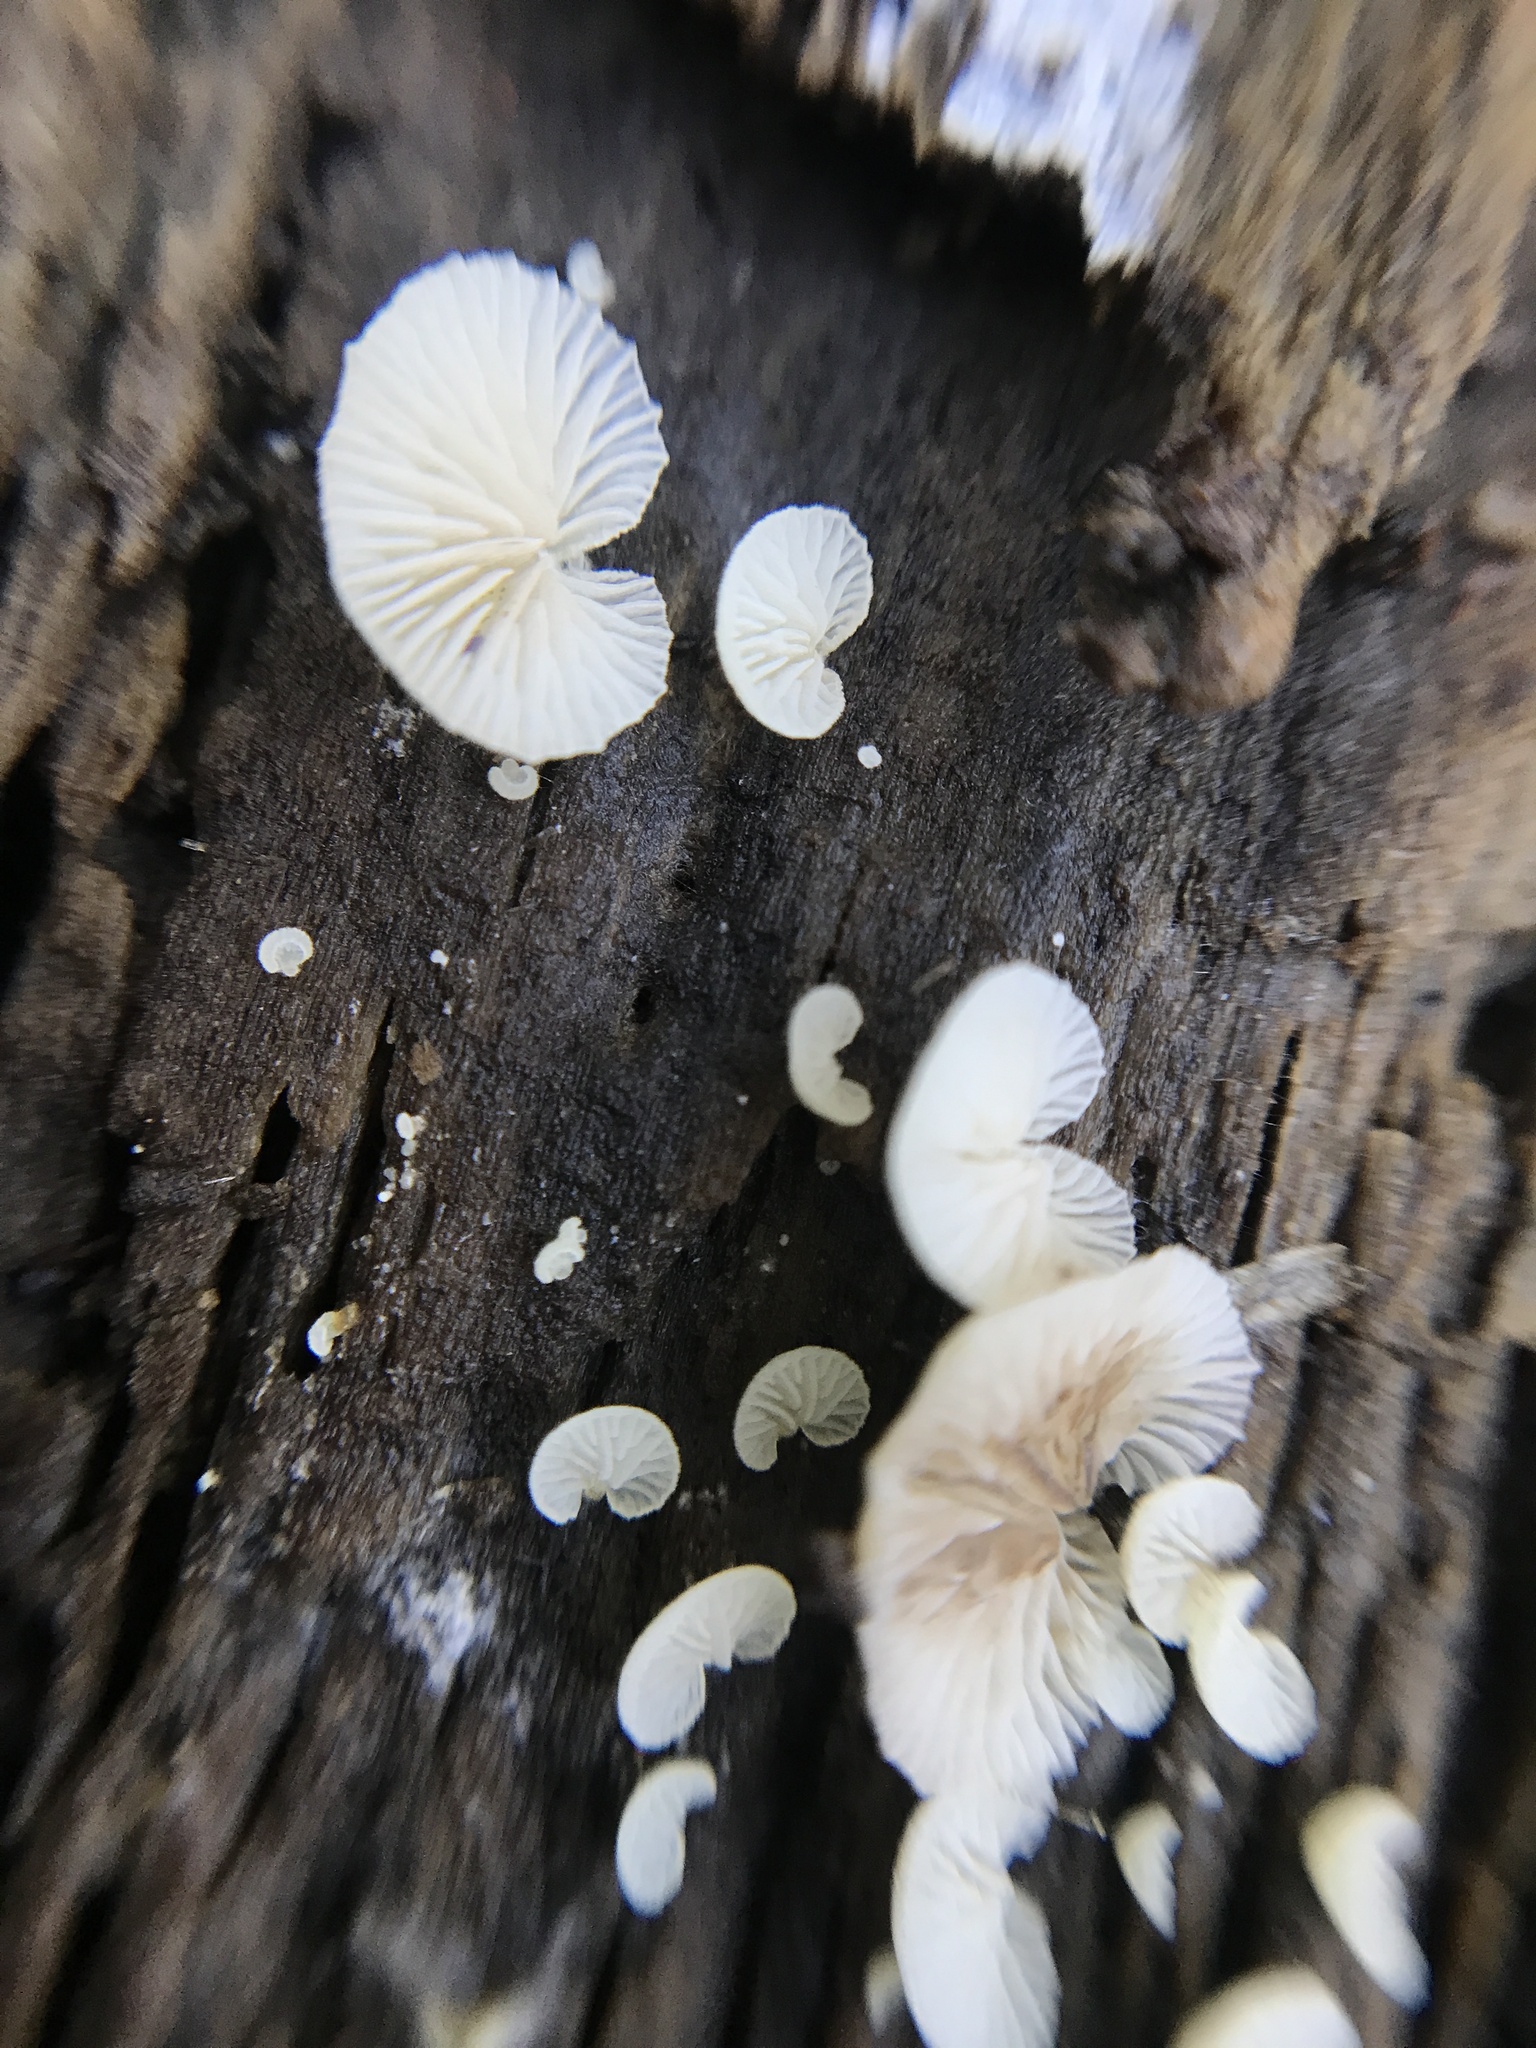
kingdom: Fungi
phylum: Basidiomycota
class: Agaricomycetes
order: Agaricales
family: Crepidotaceae
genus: Crepidotus
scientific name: Crepidotus variabilis
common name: Variable oysterling
